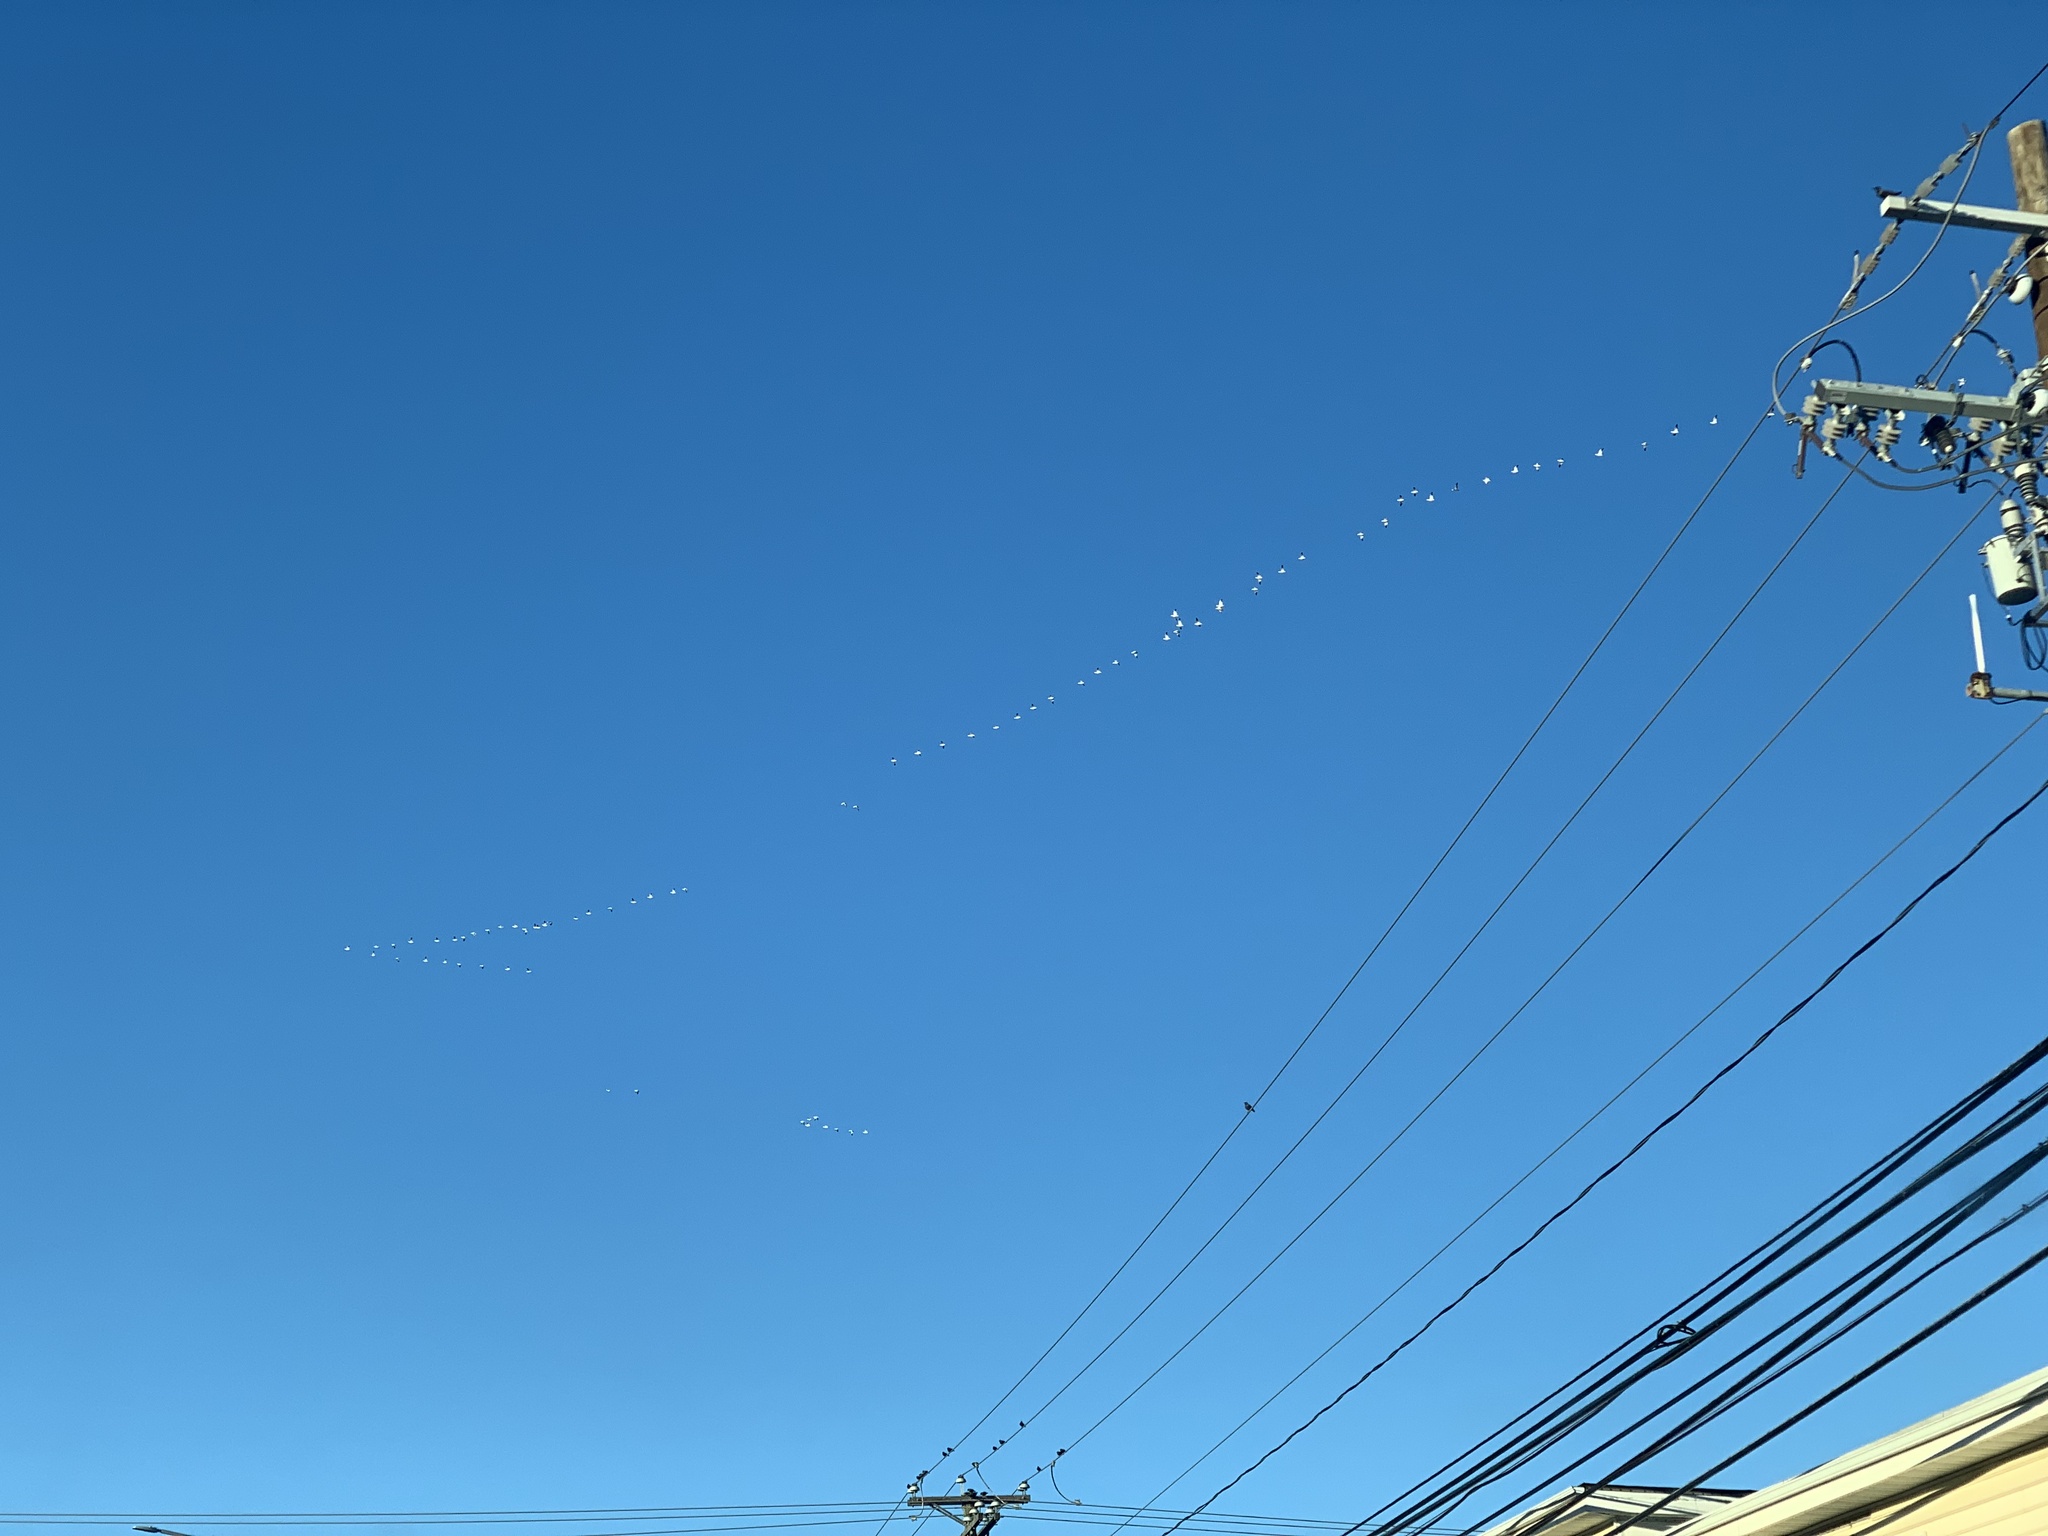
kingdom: Animalia
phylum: Chordata
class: Aves
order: Anseriformes
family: Anatidae
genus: Anser
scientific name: Anser caerulescens
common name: Snow goose
